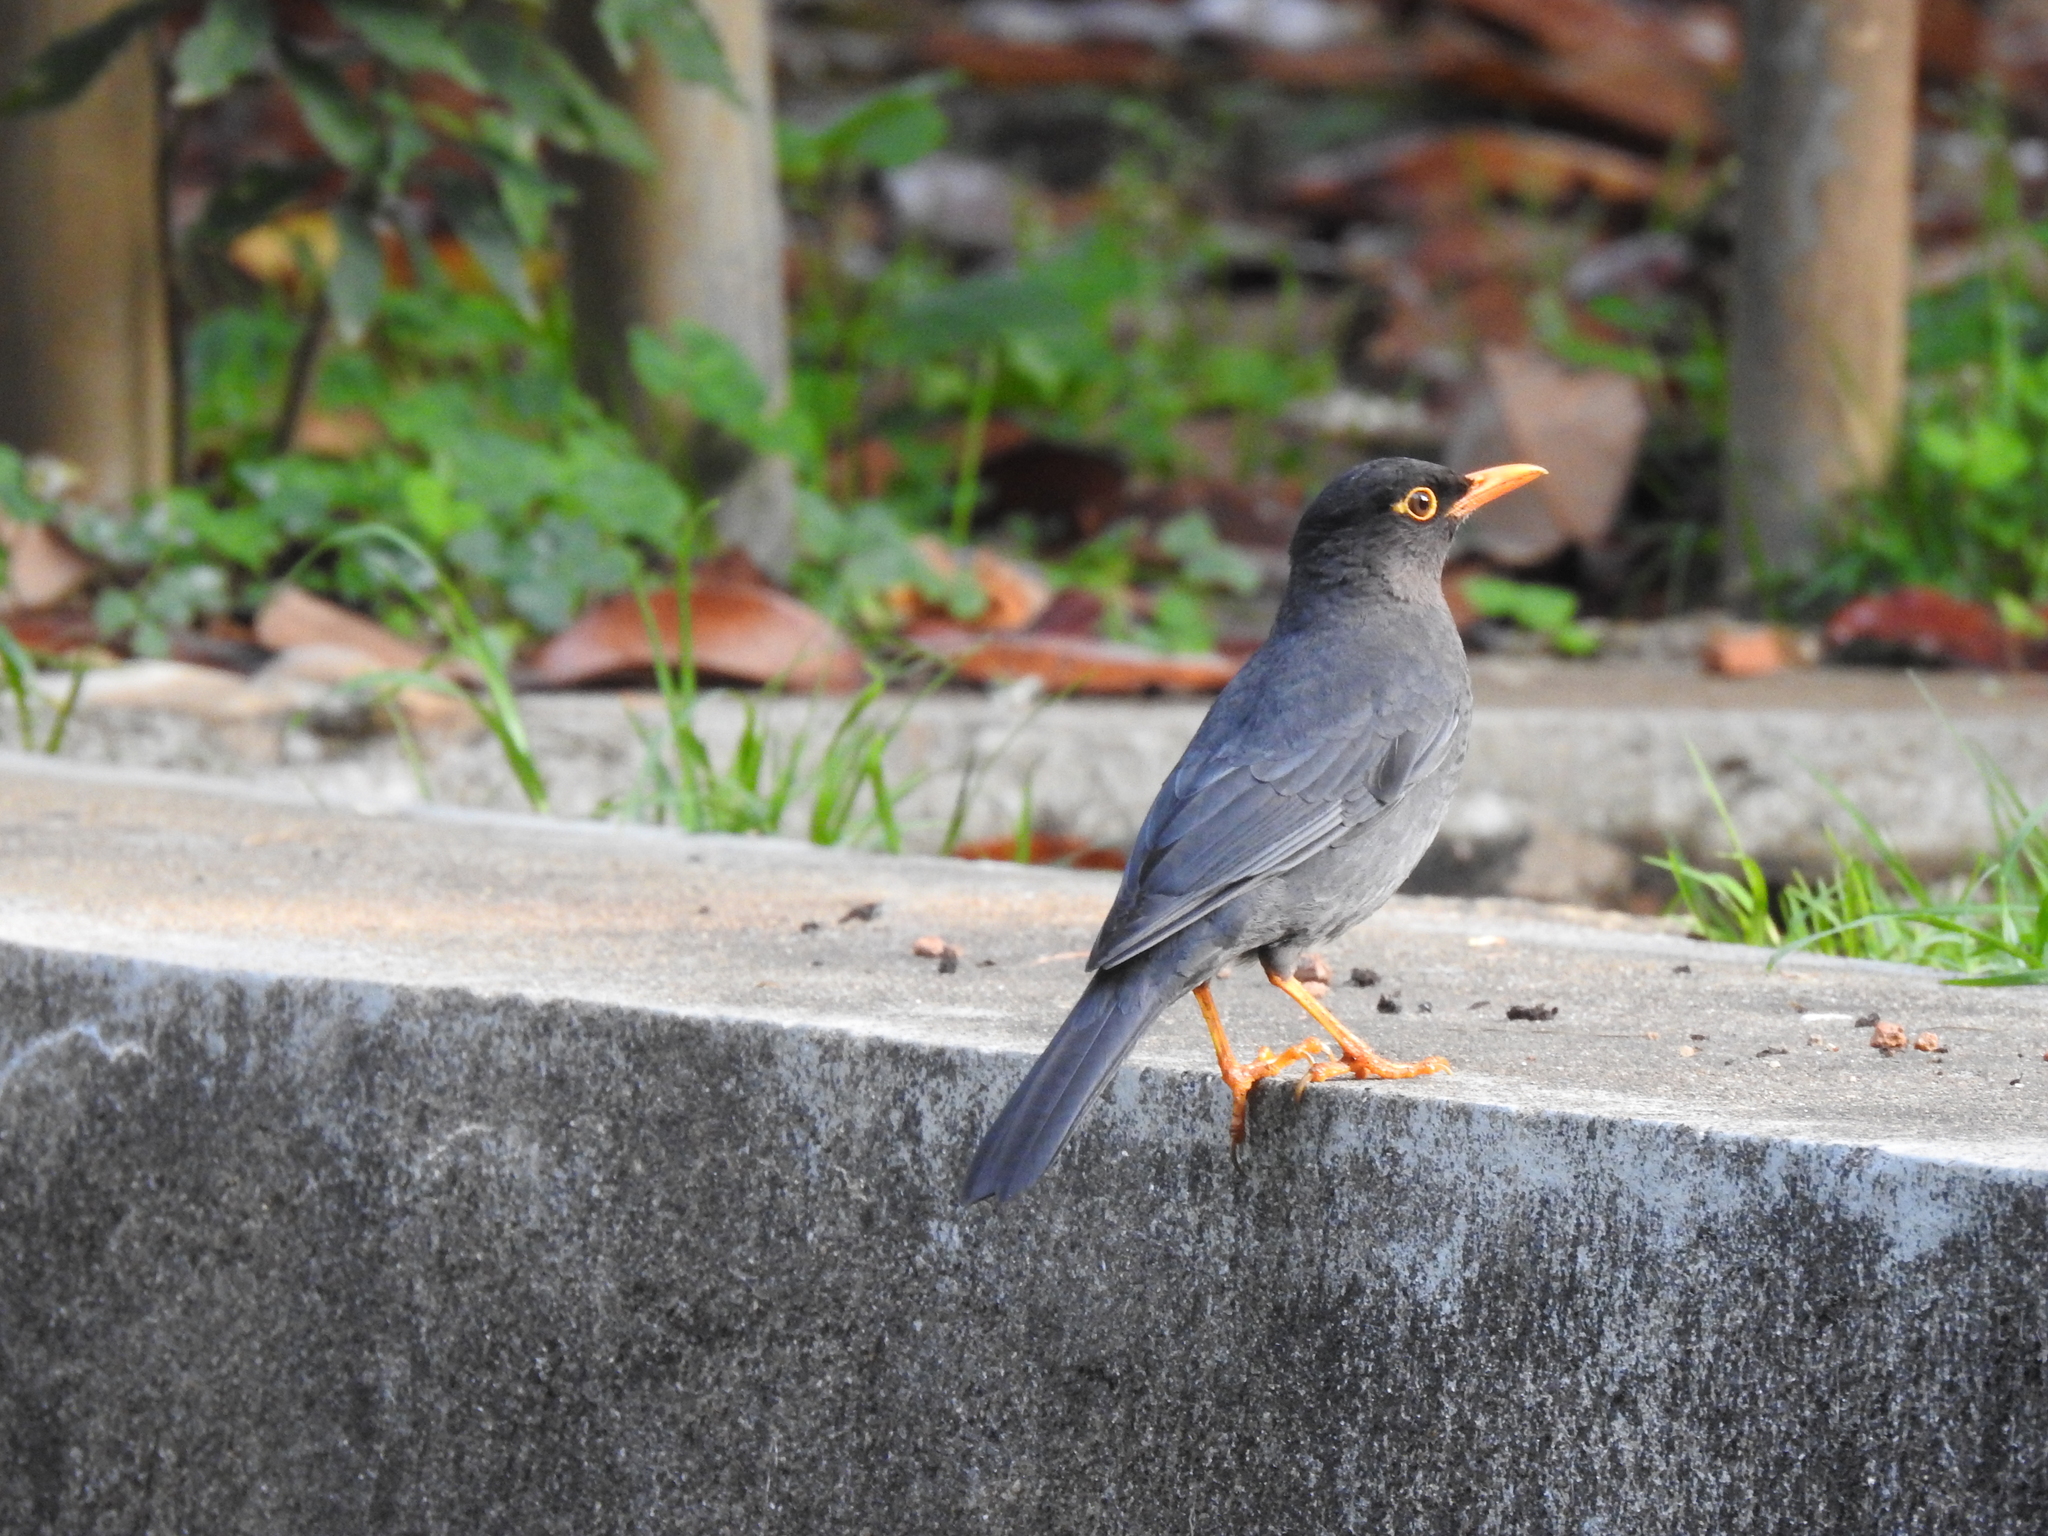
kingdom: Animalia
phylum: Chordata
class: Aves
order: Passeriformes
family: Turdidae
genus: Turdus
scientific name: Turdus simillimus
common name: Indian blackbird
